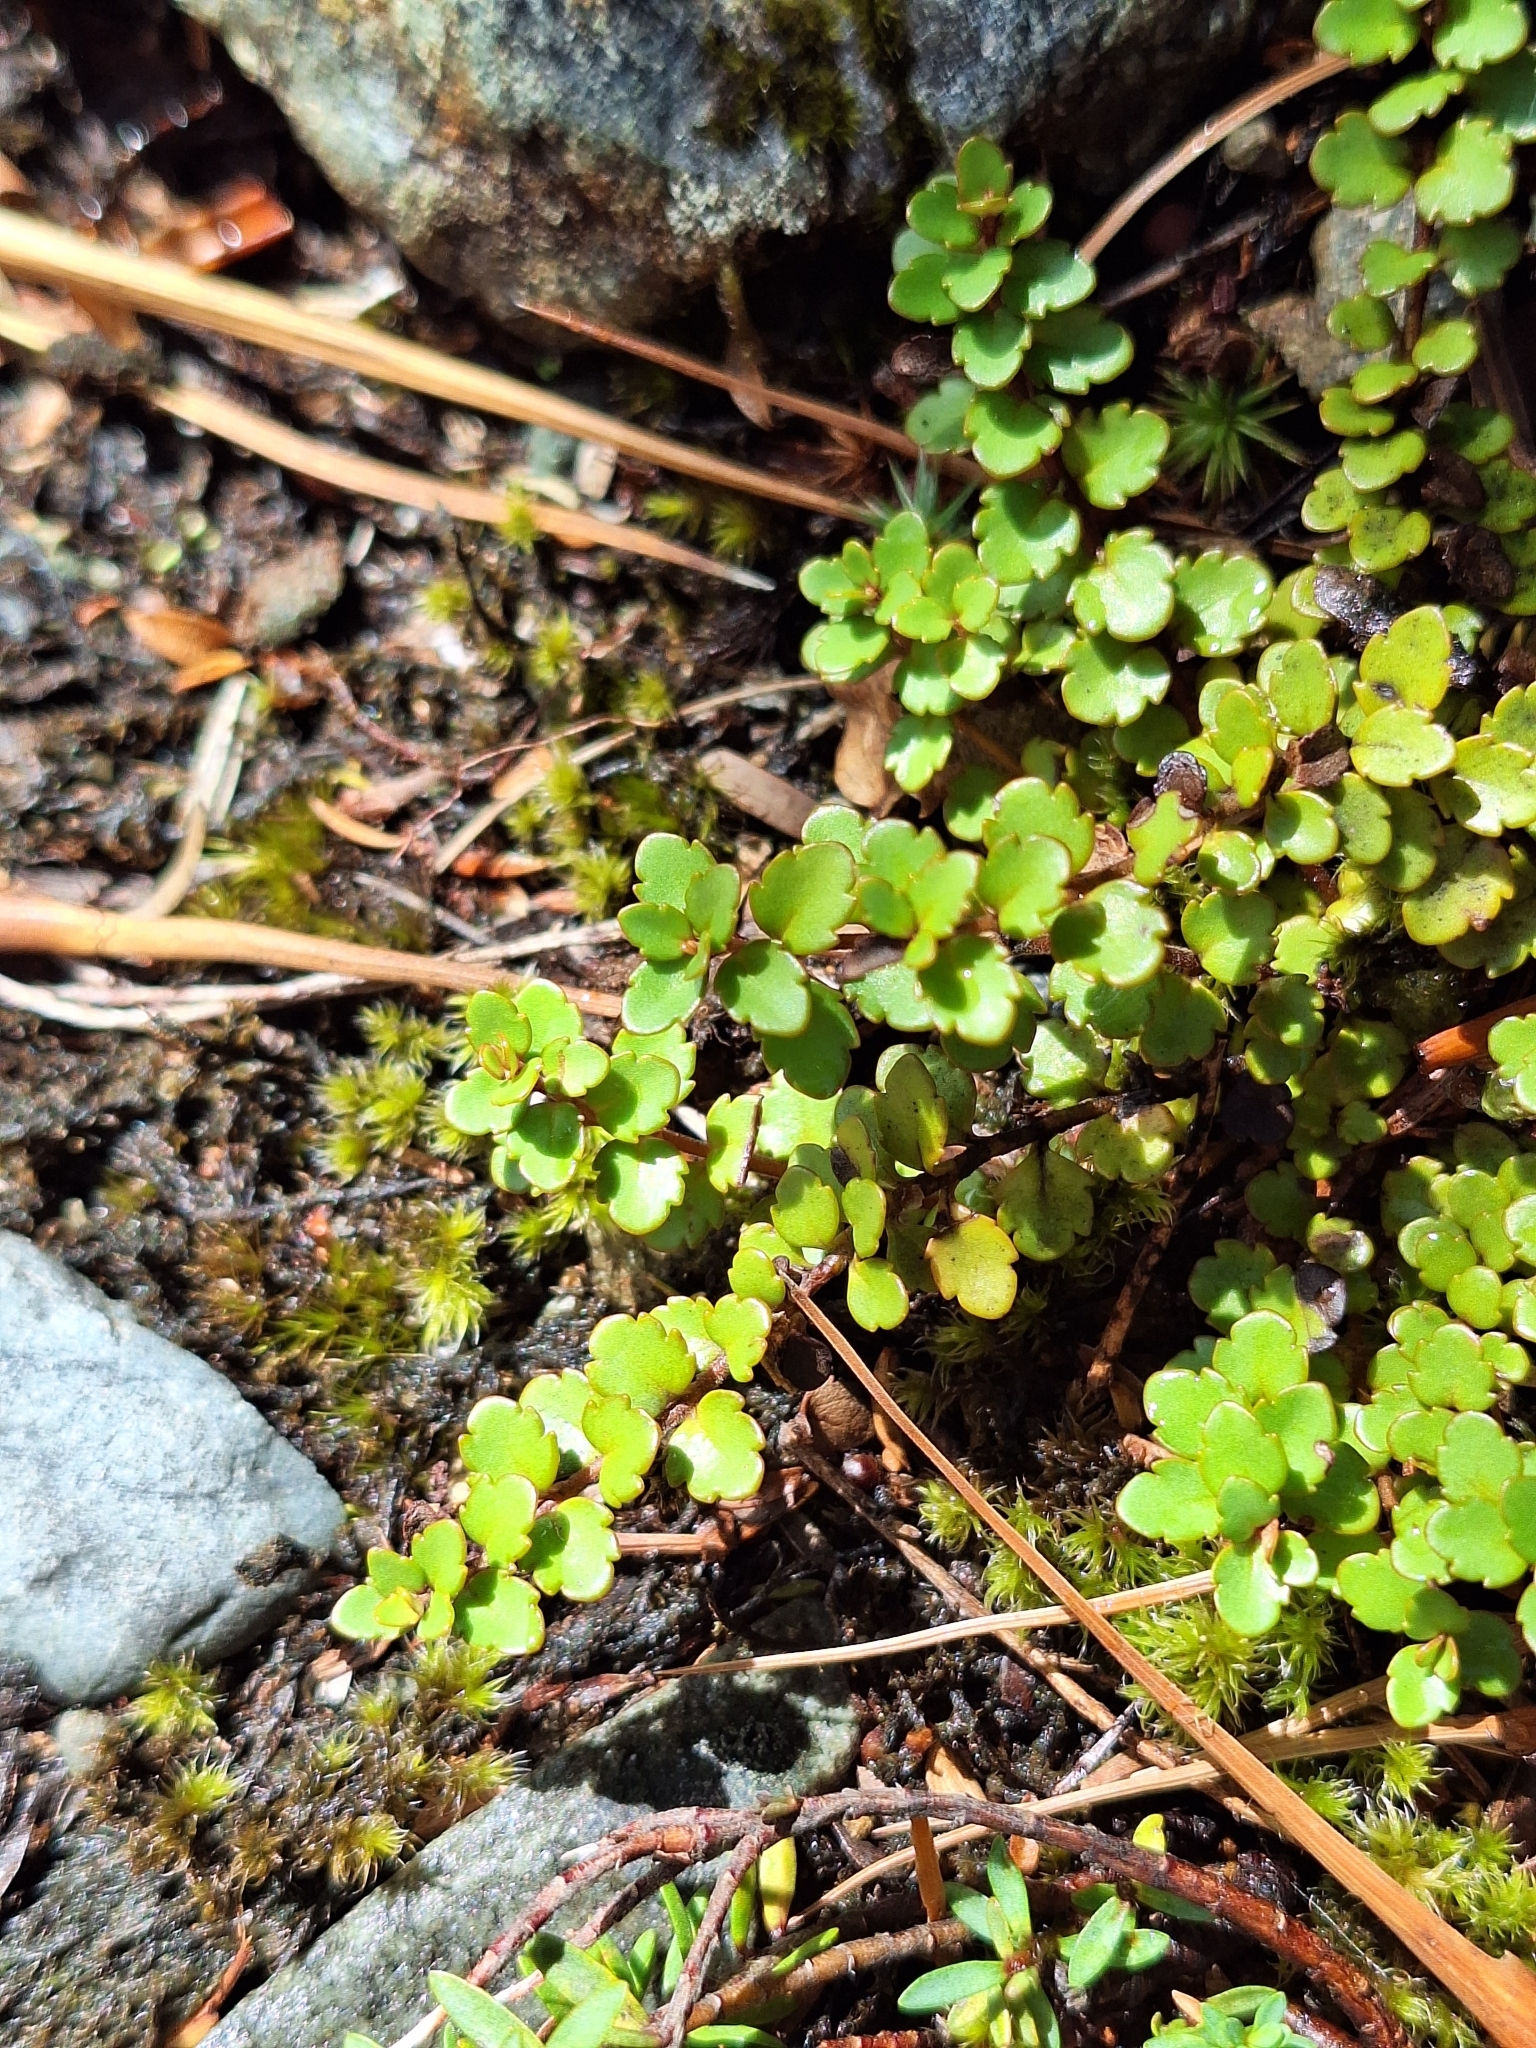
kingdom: Plantae
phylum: Tracheophyta
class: Magnoliopsida
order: Lamiales
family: Plantaginaceae
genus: Veronica
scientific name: Veronica lyallii
